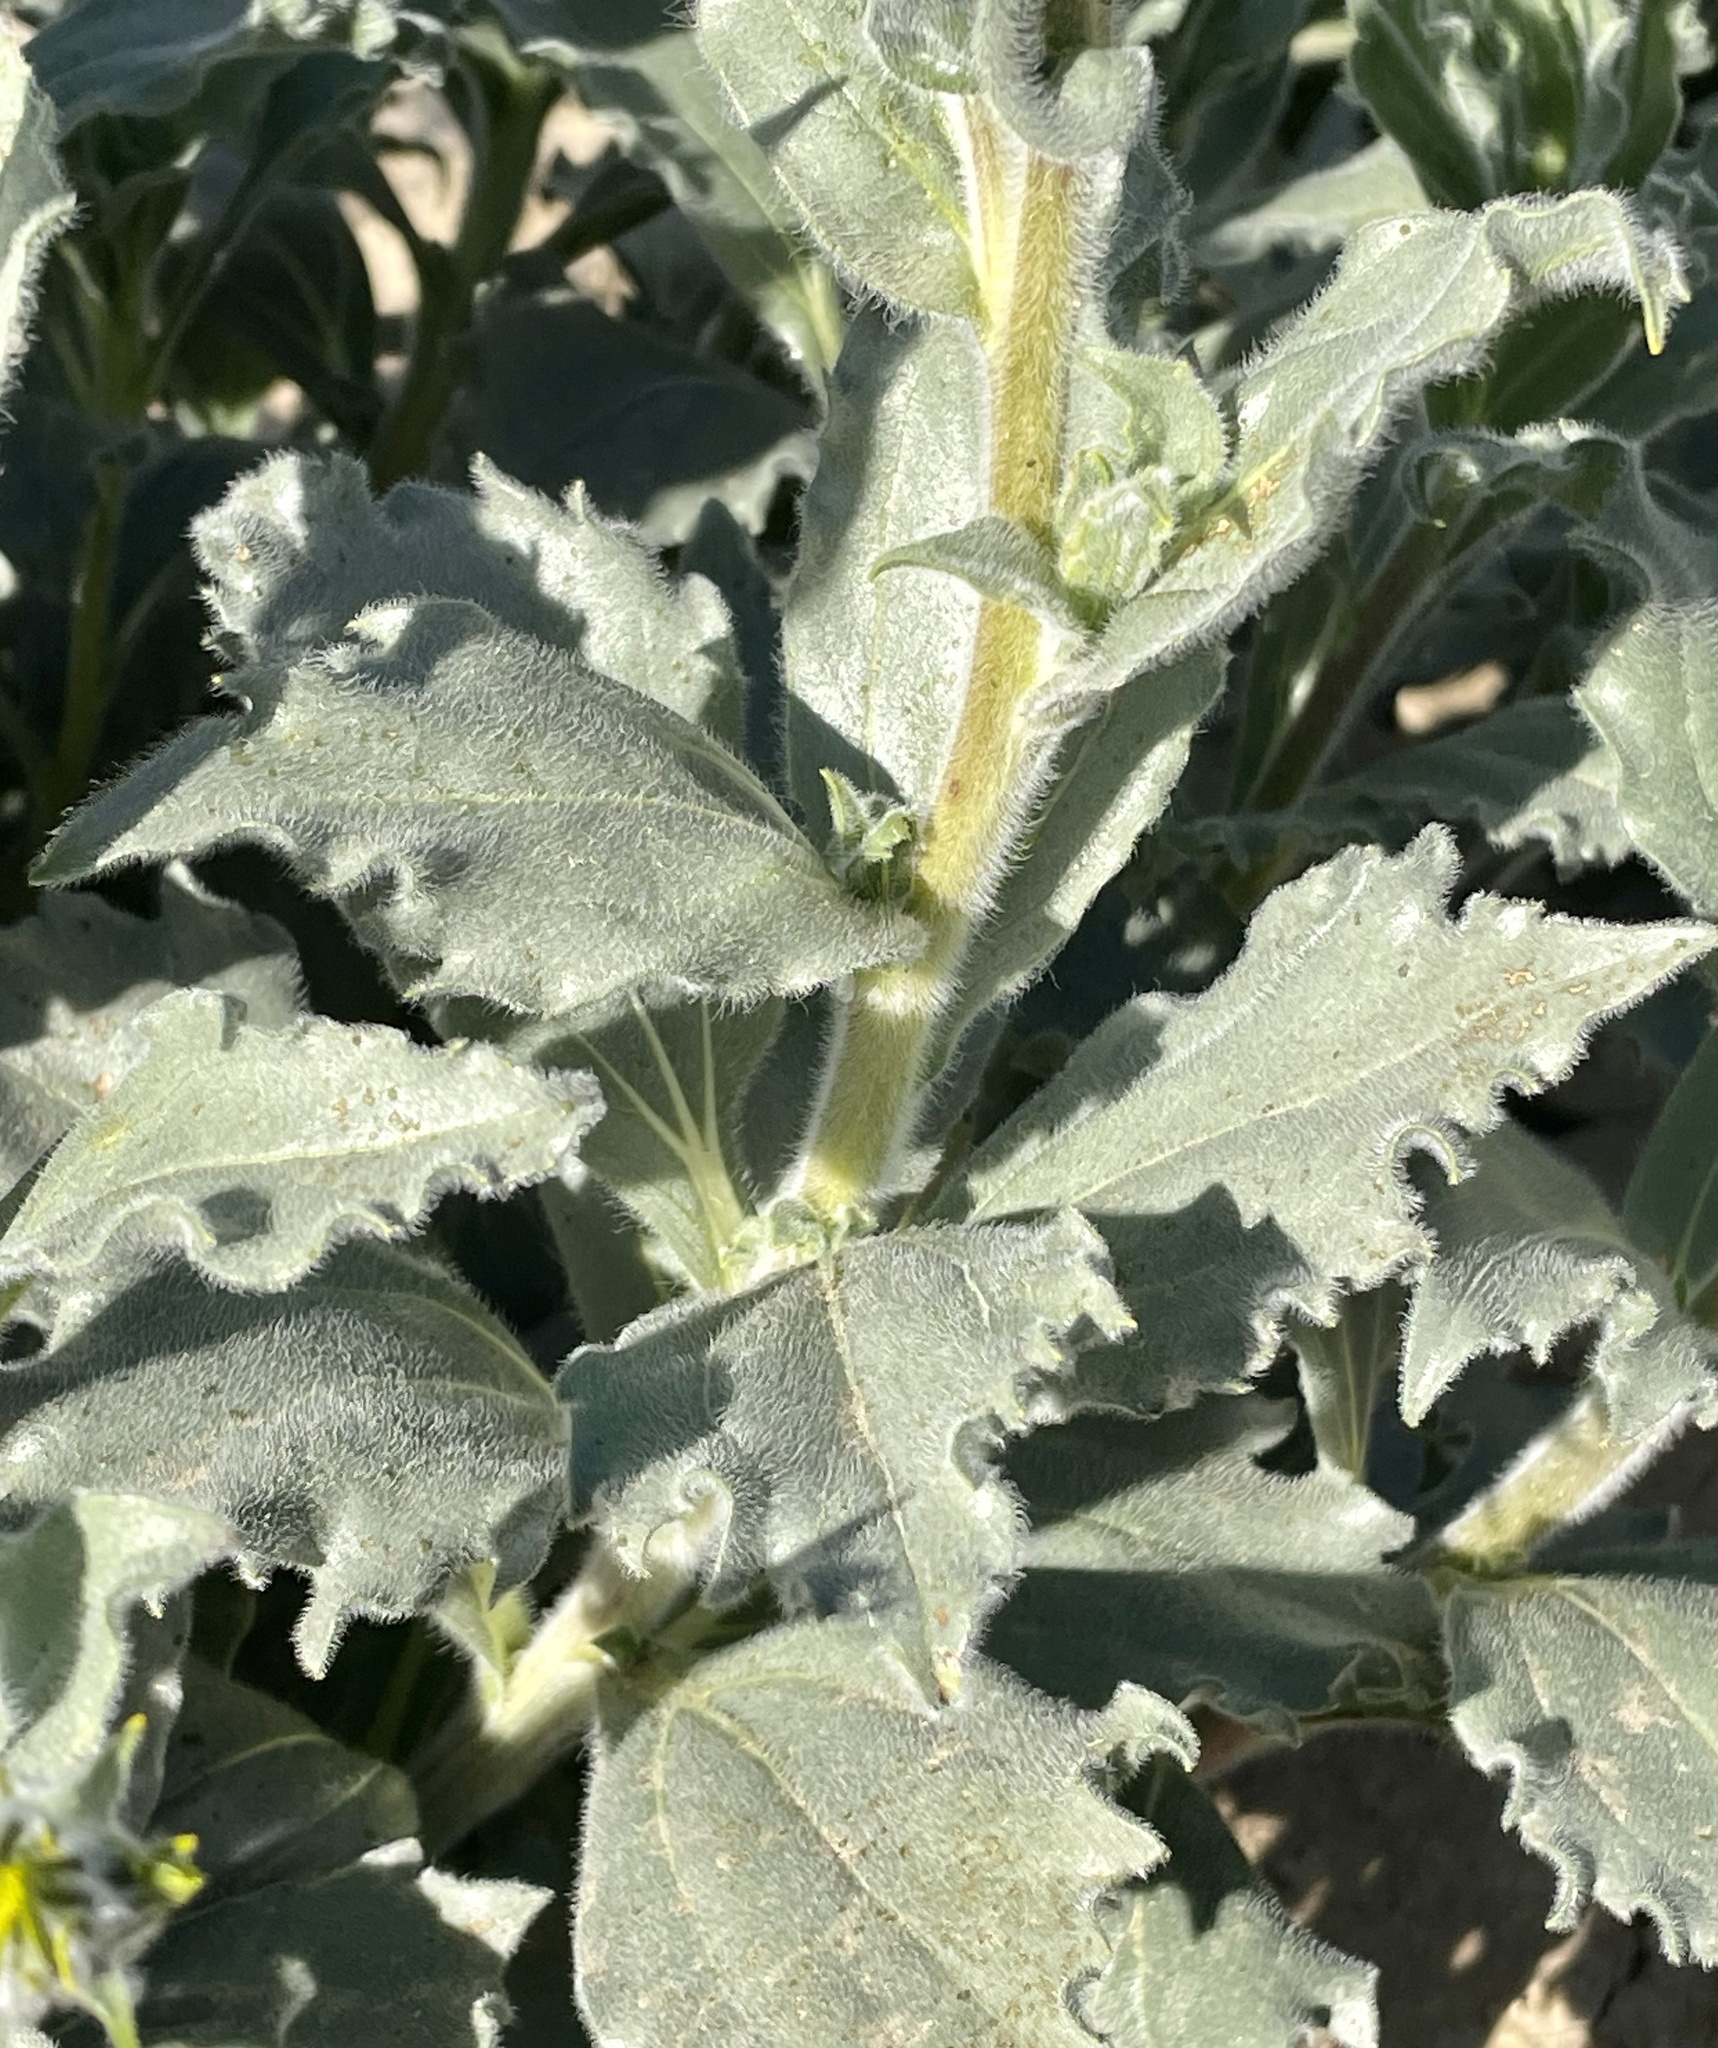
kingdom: Plantae
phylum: Tracheophyta
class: Magnoliopsida
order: Asterales
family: Asteraceae
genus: Geraea
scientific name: Geraea canescens
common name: Desert-gold
